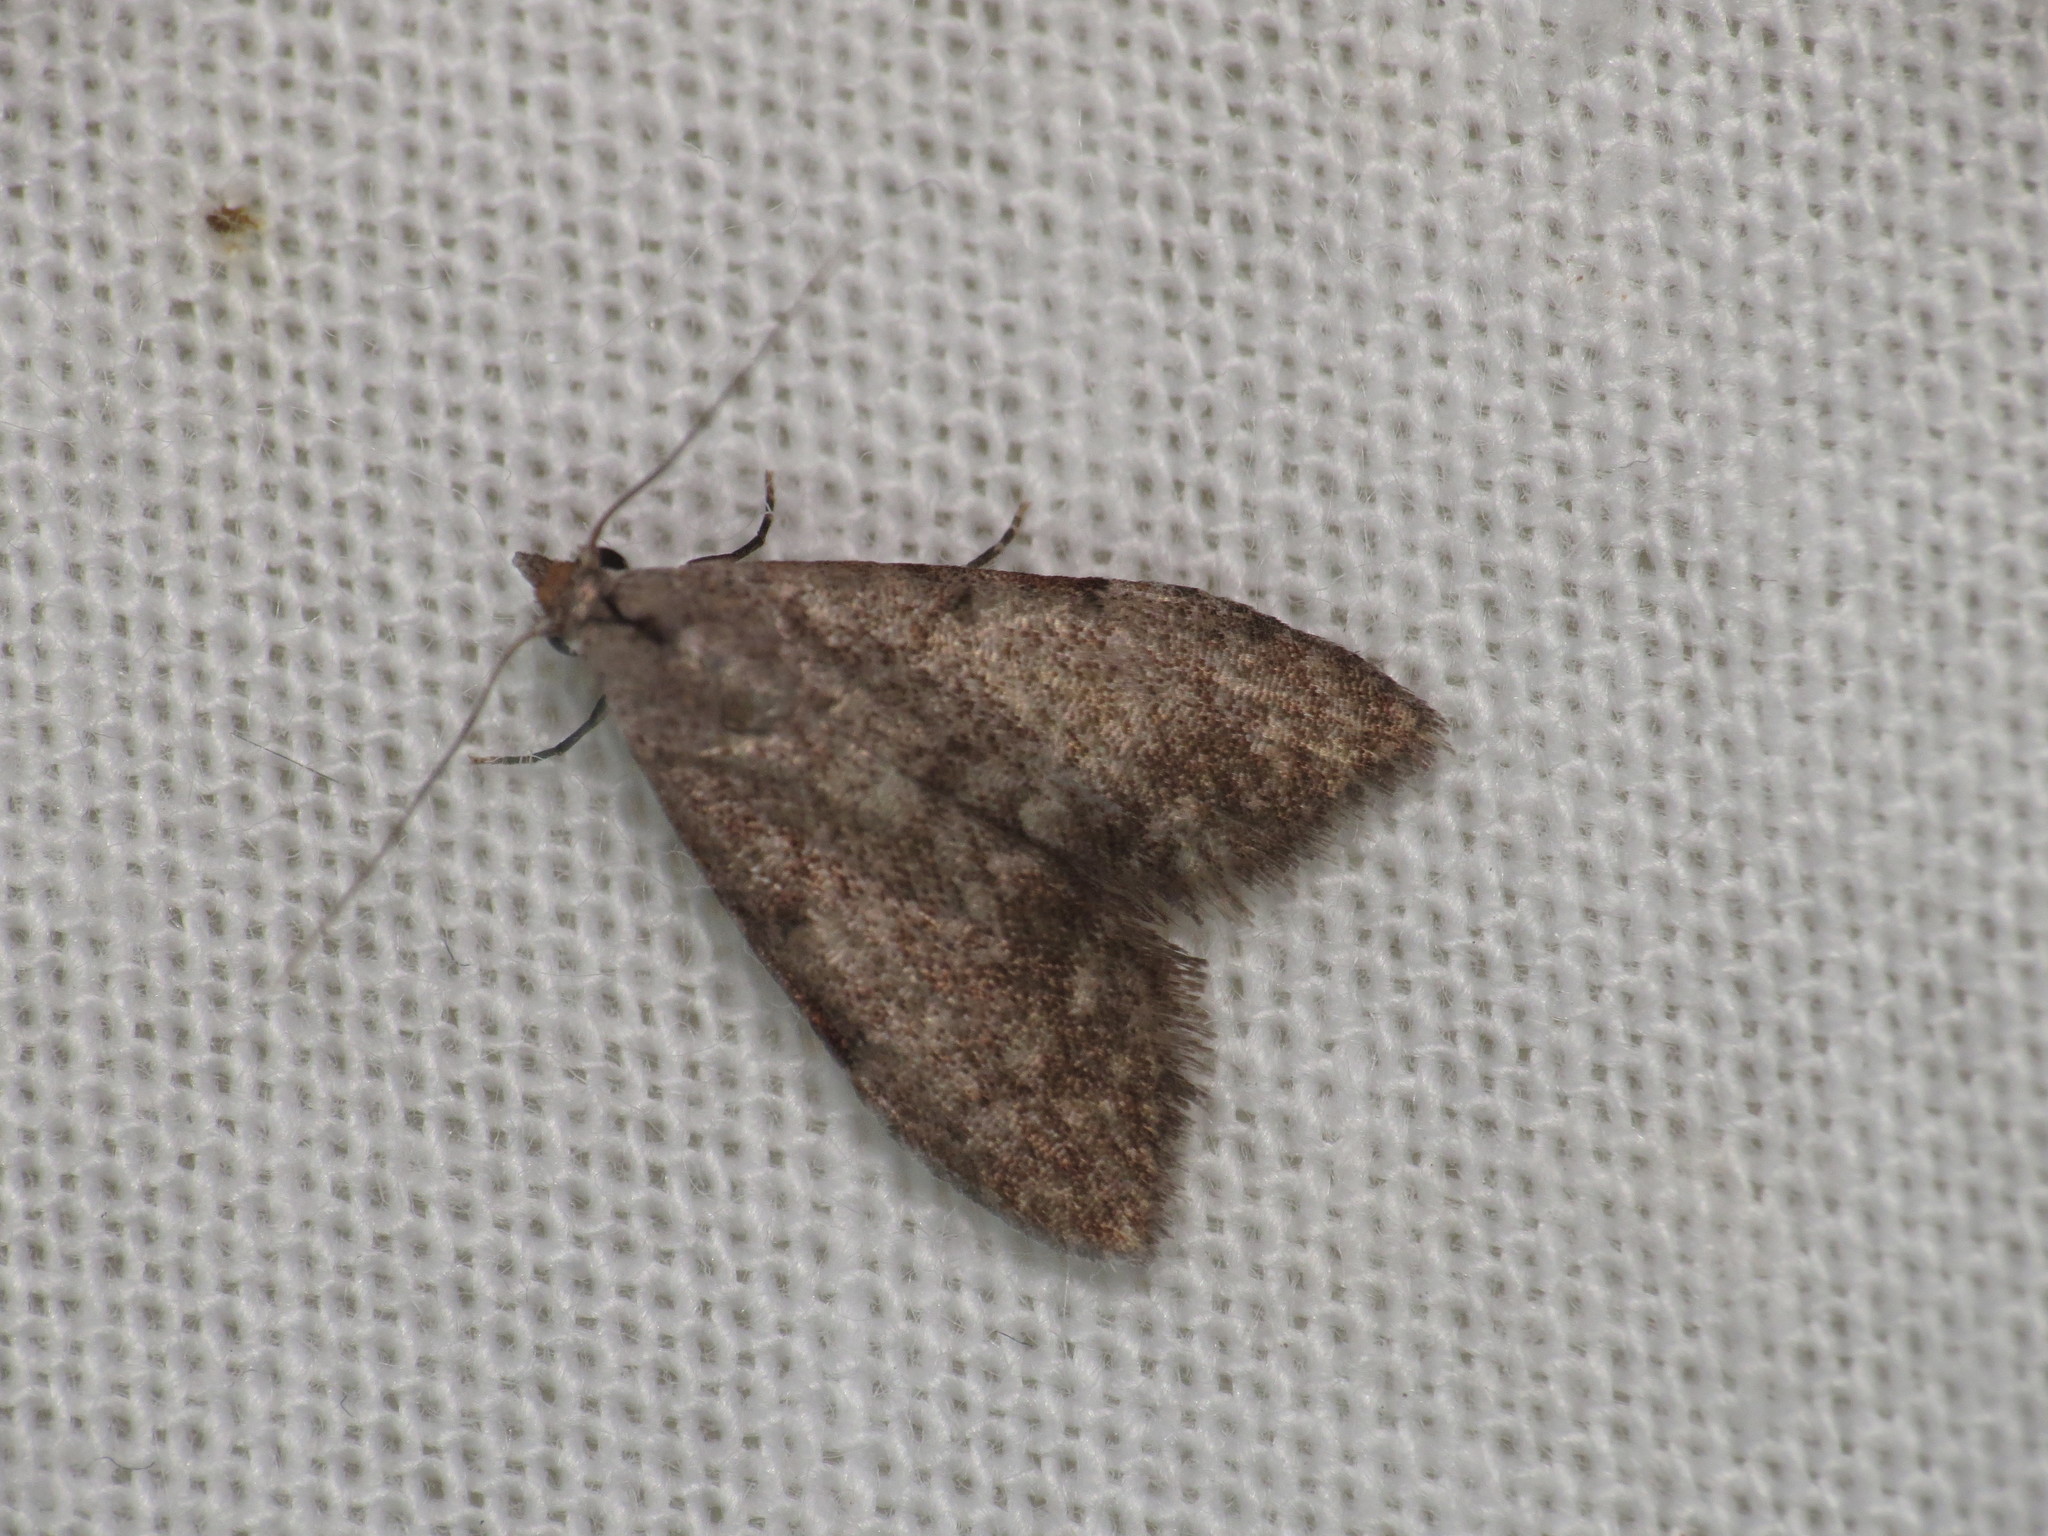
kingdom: Animalia
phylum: Arthropoda
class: Insecta
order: Lepidoptera
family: Nolidae
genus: Nola
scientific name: Nola pleurosema
